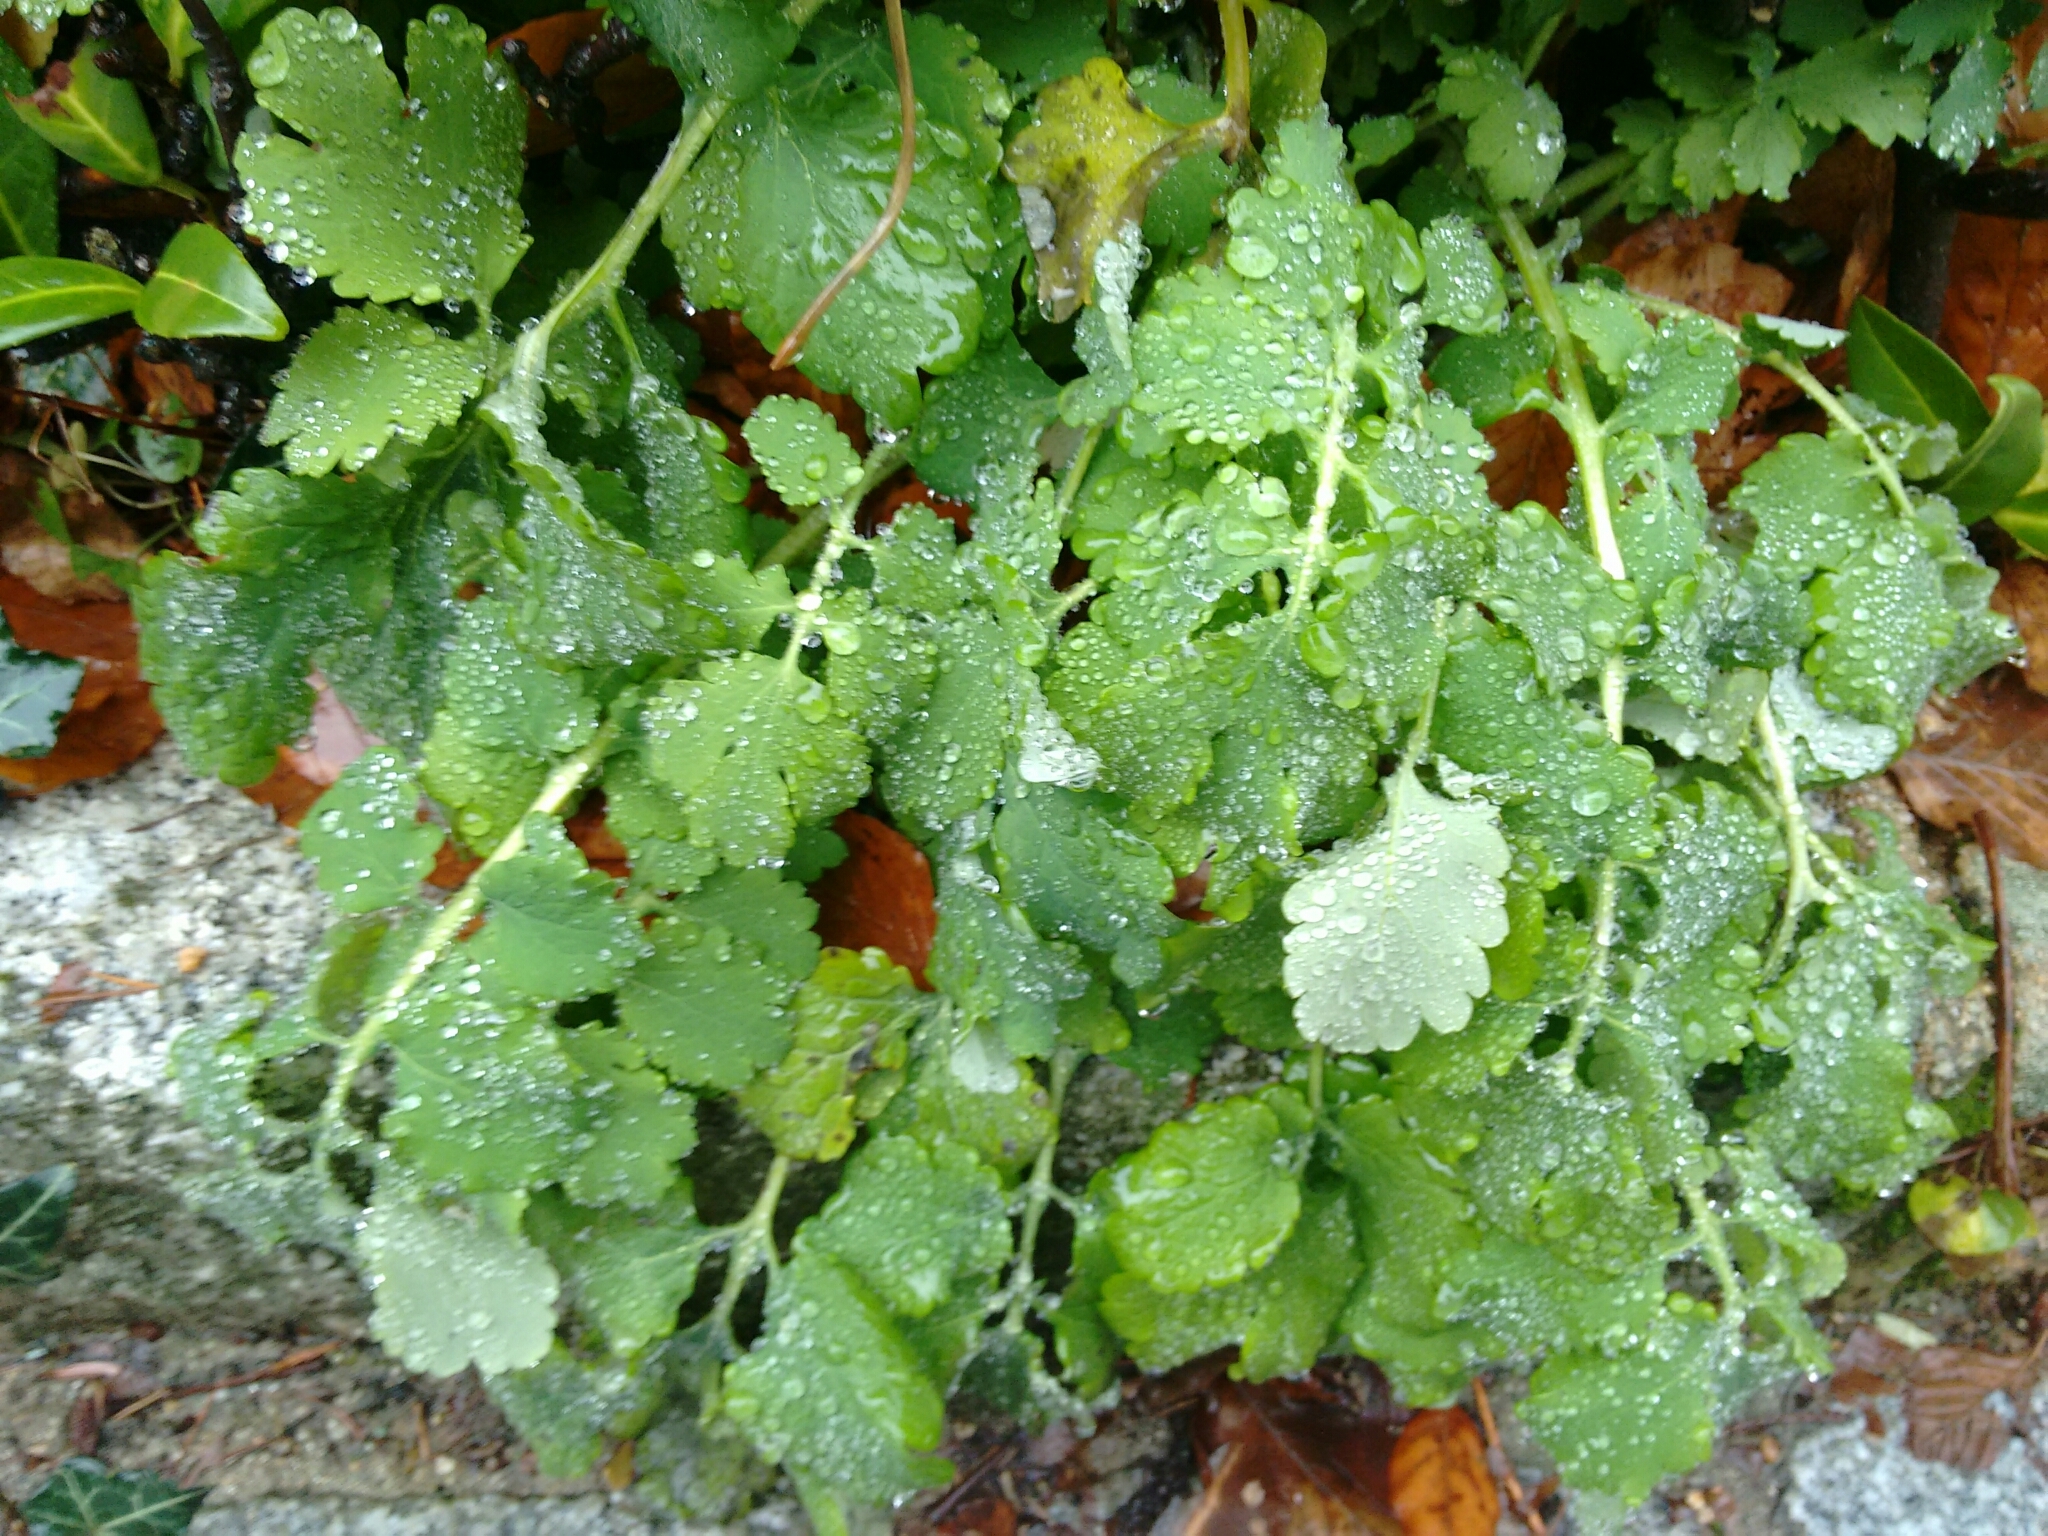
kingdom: Plantae
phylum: Tracheophyta
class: Magnoliopsida
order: Ranunculales
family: Papaveraceae
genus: Chelidonium
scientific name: Chelidonium majus
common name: Greater celandine
